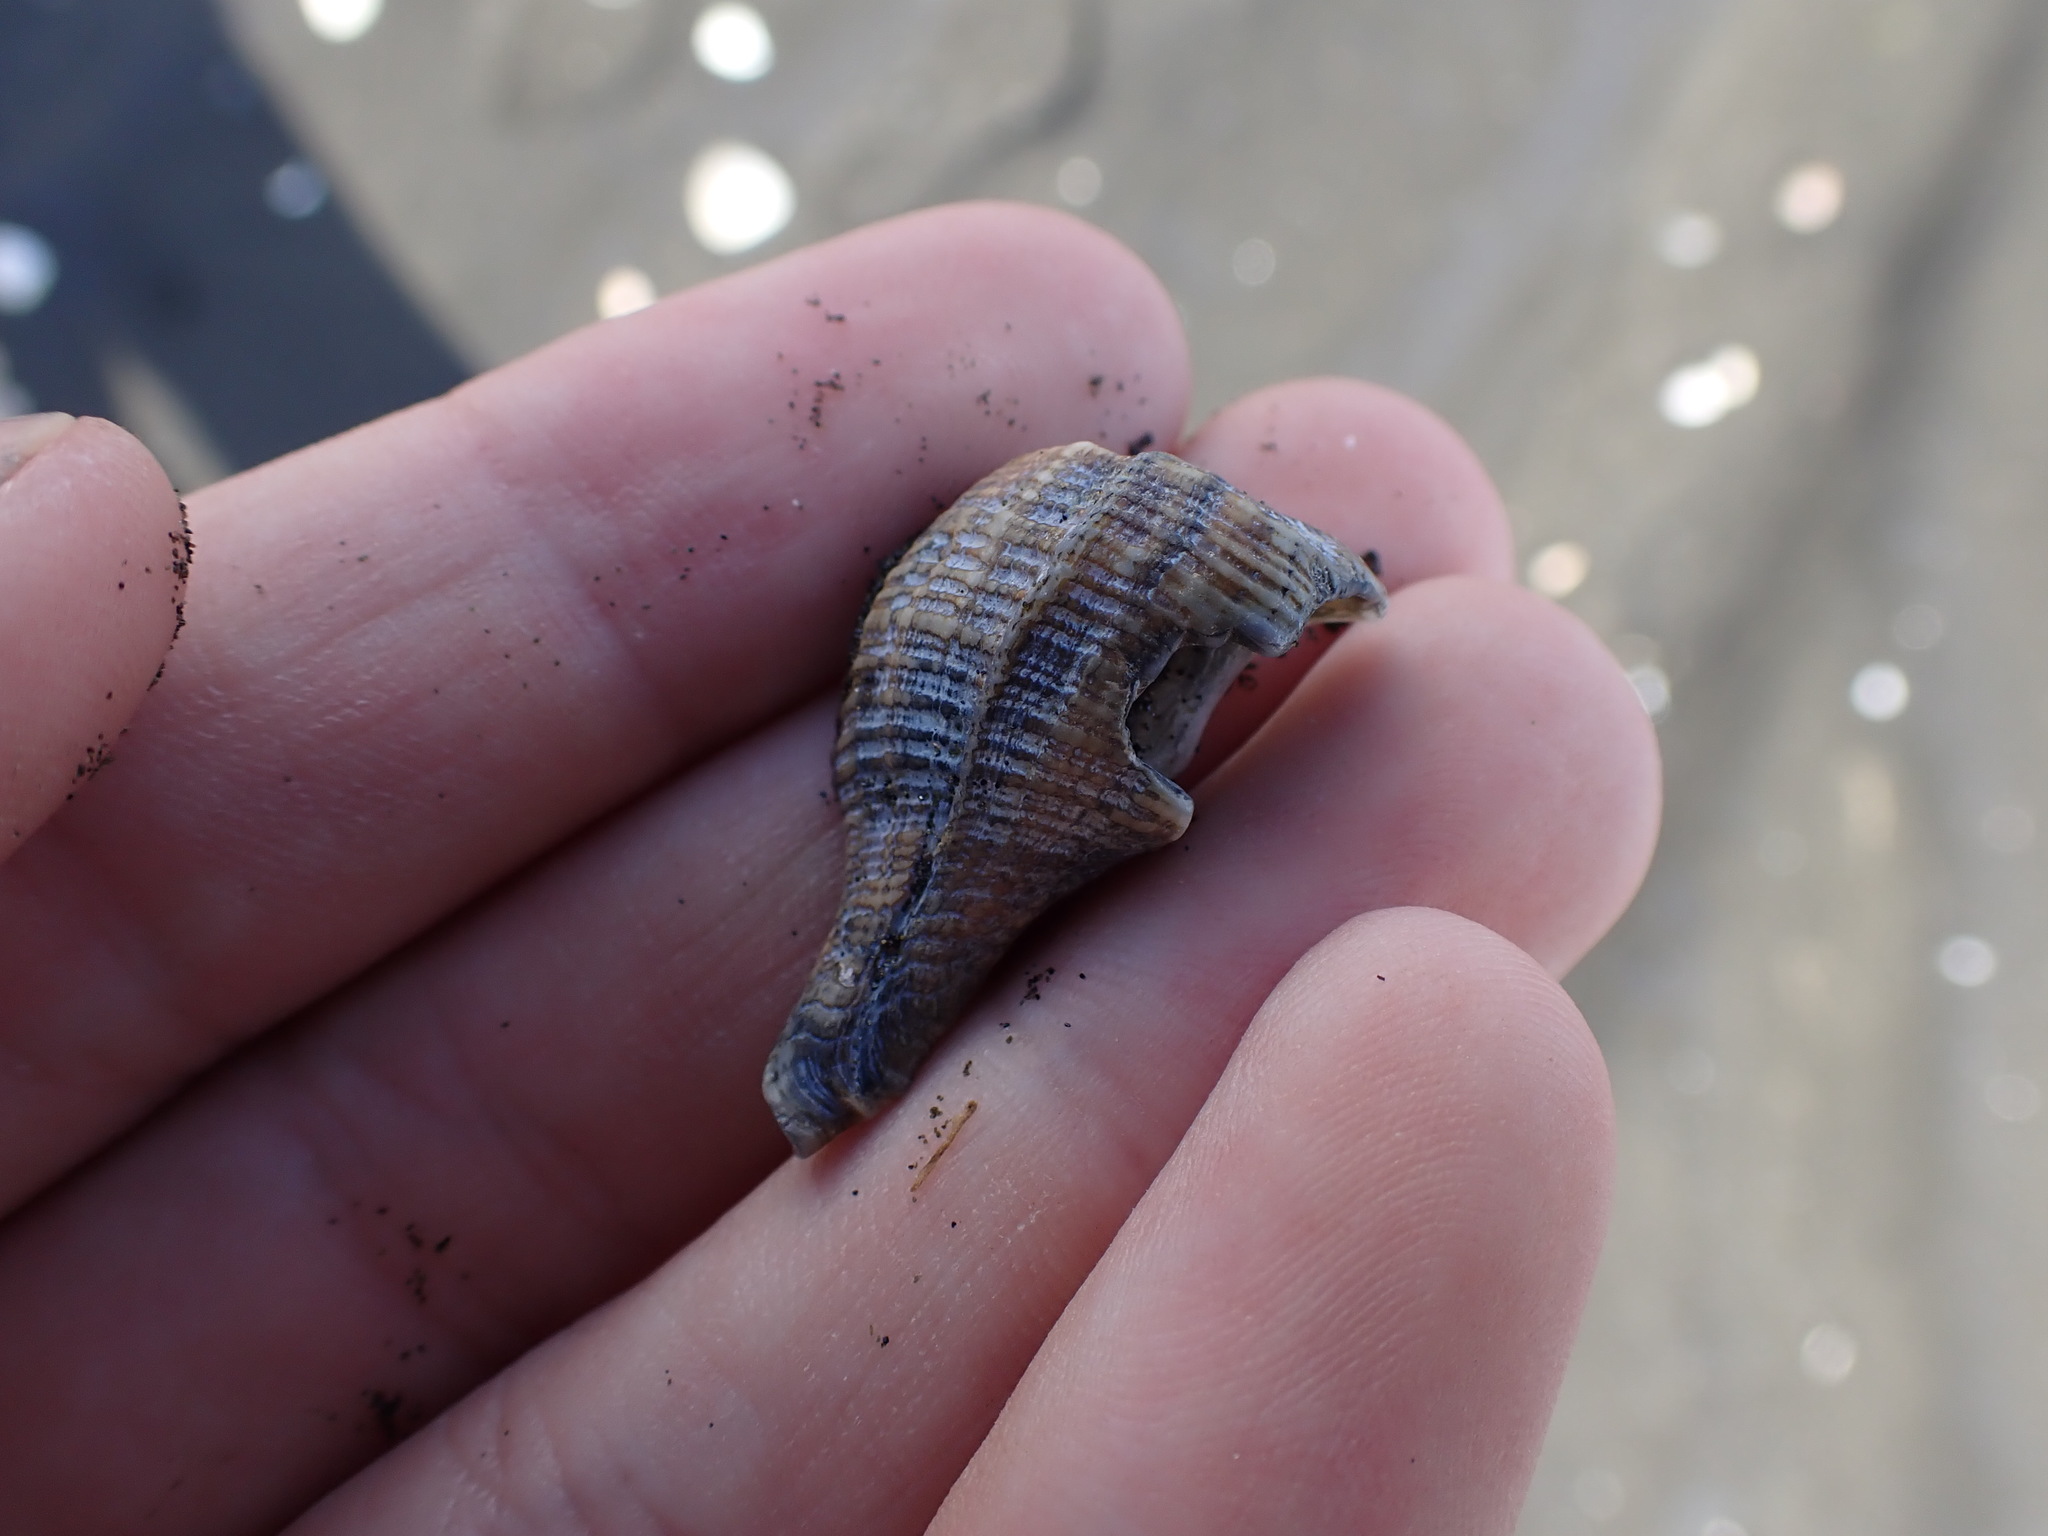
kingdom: Animalia
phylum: Mollusca
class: Gastropoda
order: Neogastropoda
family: Muricidae
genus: Zeatrophon
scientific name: Zeatrophon ambiguus
